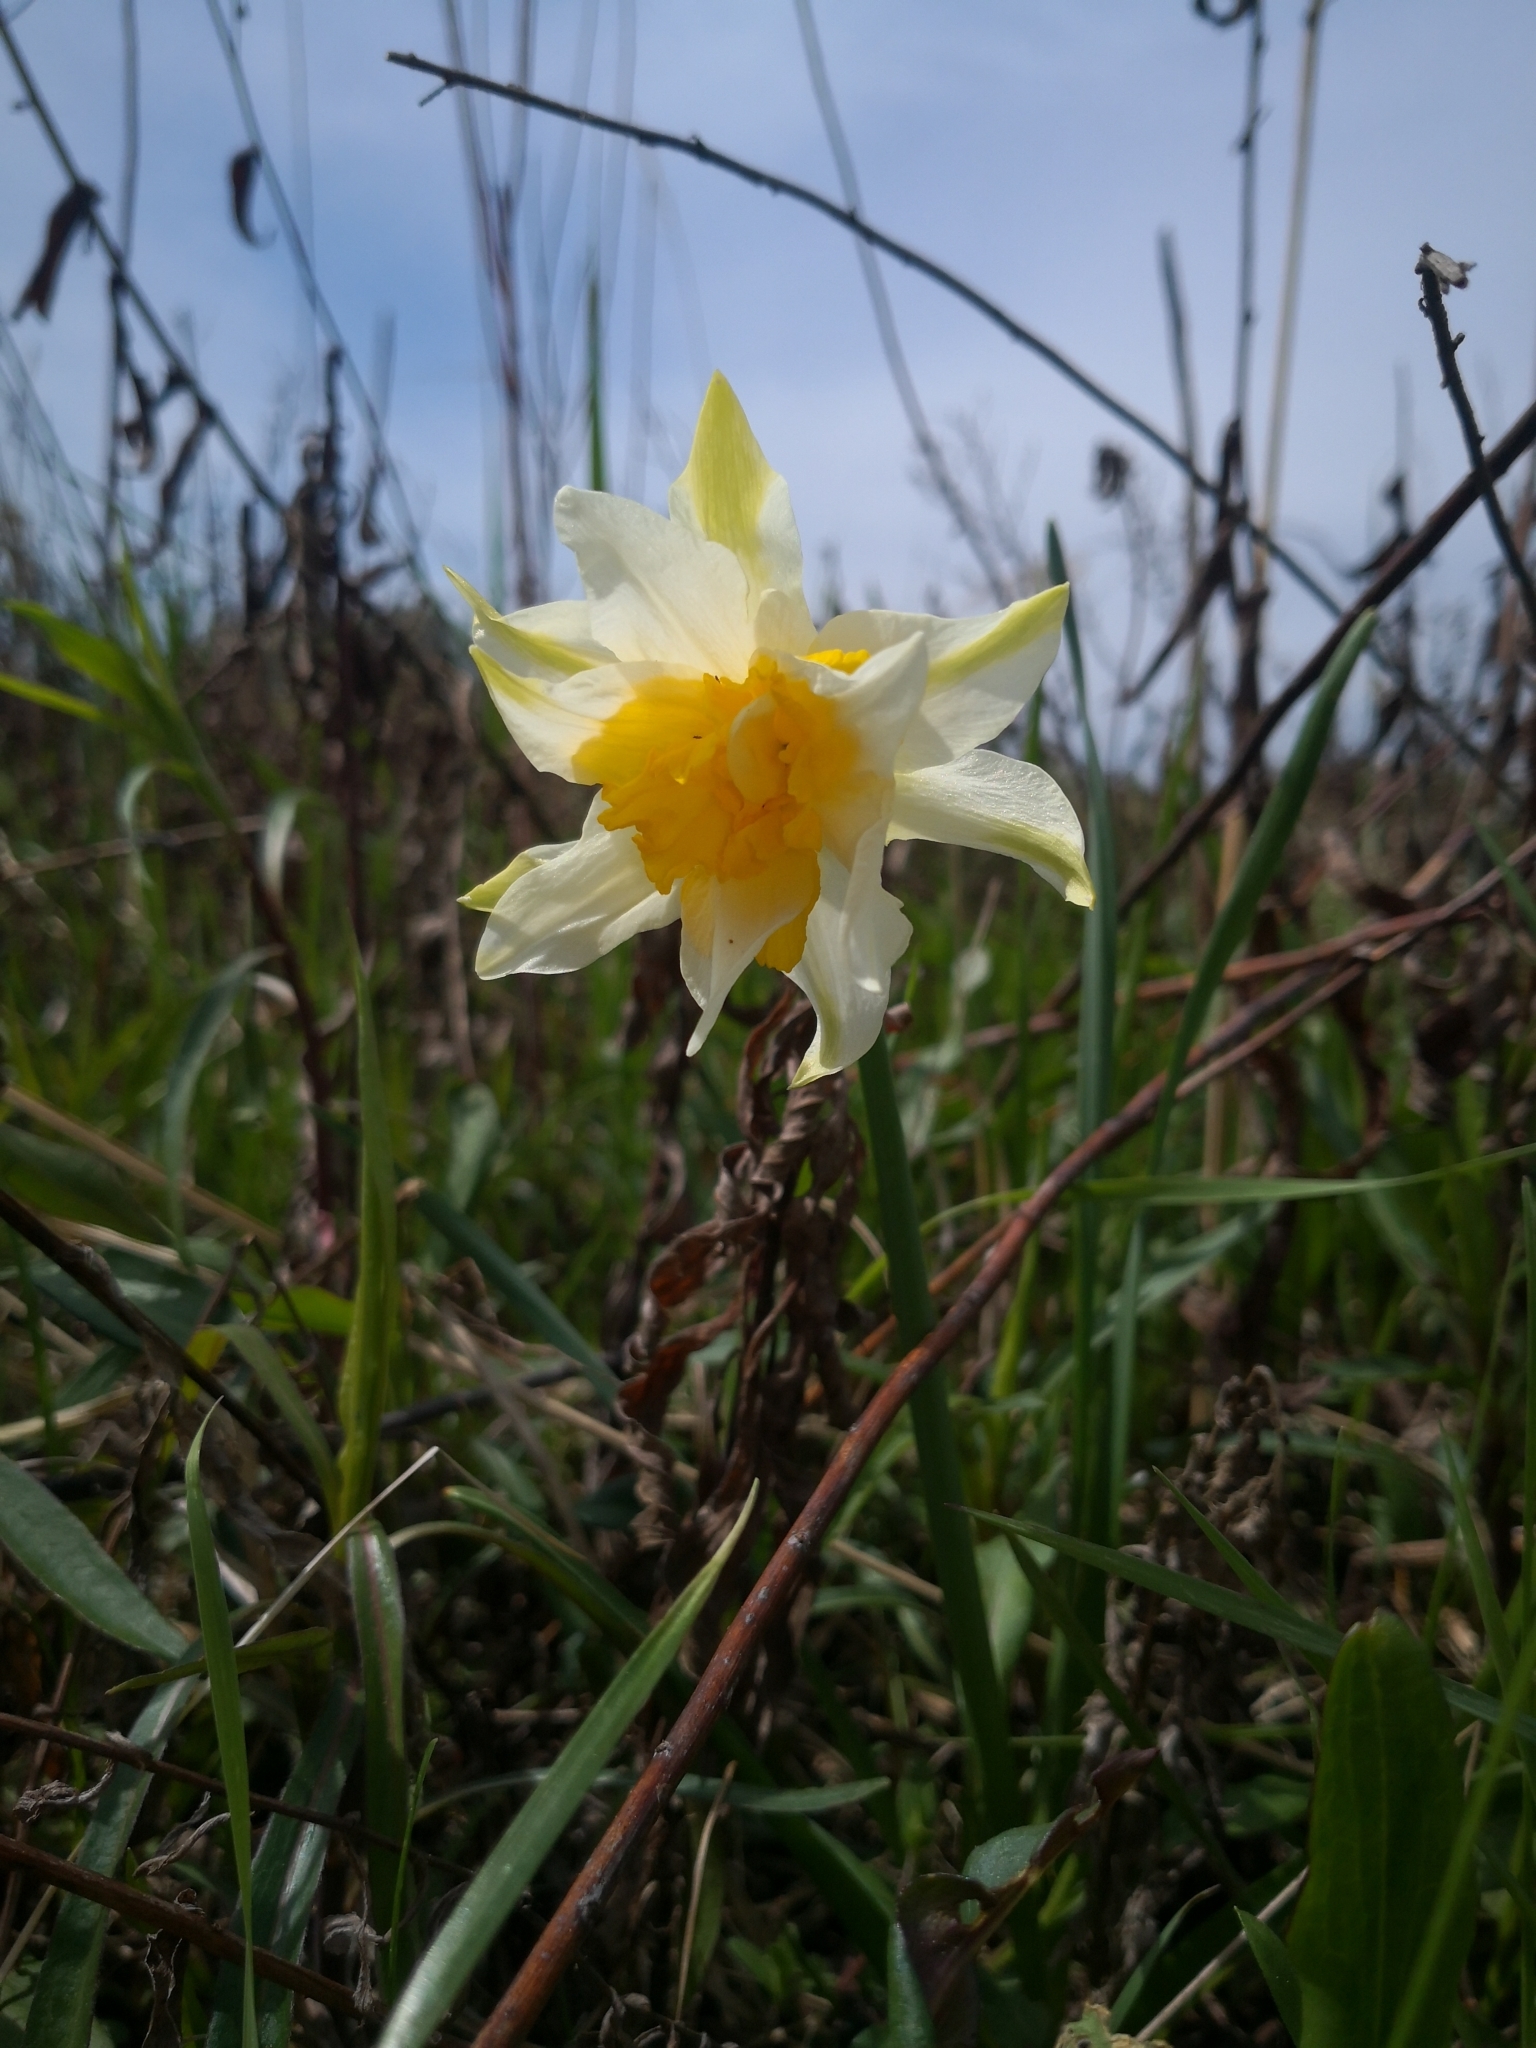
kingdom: Plantae
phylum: Tracheophyta
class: Liliopsida
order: Asparagales
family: Amaryllidaceae
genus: Narcissus
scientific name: Narcissus incomparabilis
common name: Nonesuch daffodil
